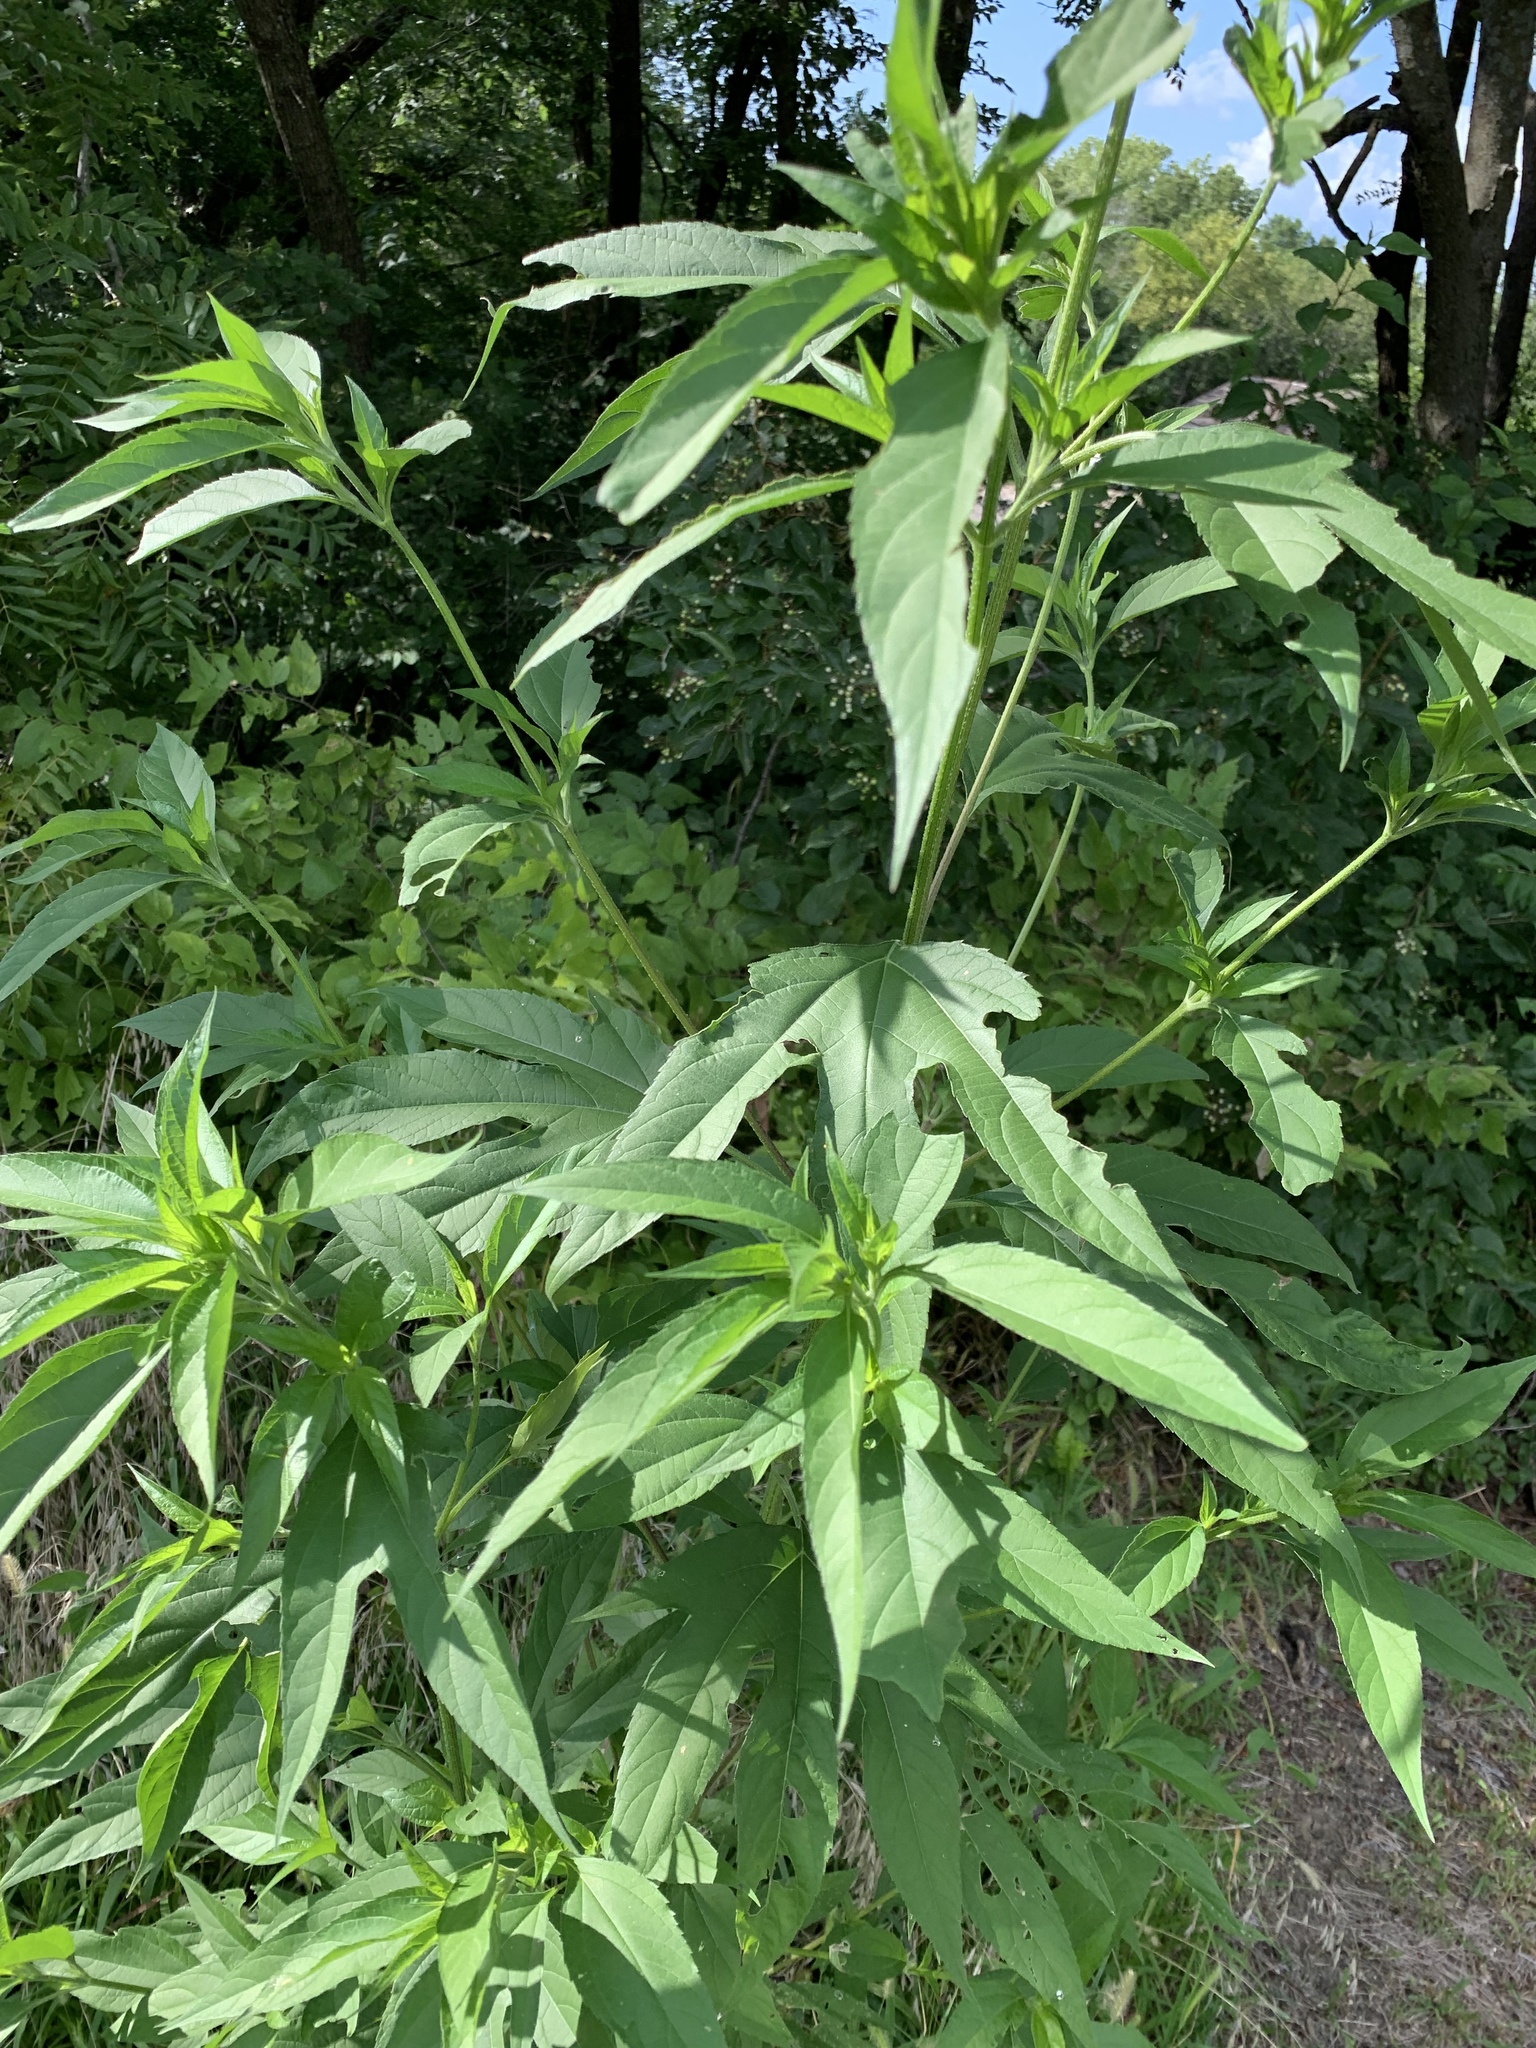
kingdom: Plantae
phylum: Tracheophyta
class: Magnoliopsida
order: Asterales
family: Asteraceae
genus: Ambrosia
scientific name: Ambrosia trifida
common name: Giant ragweed
